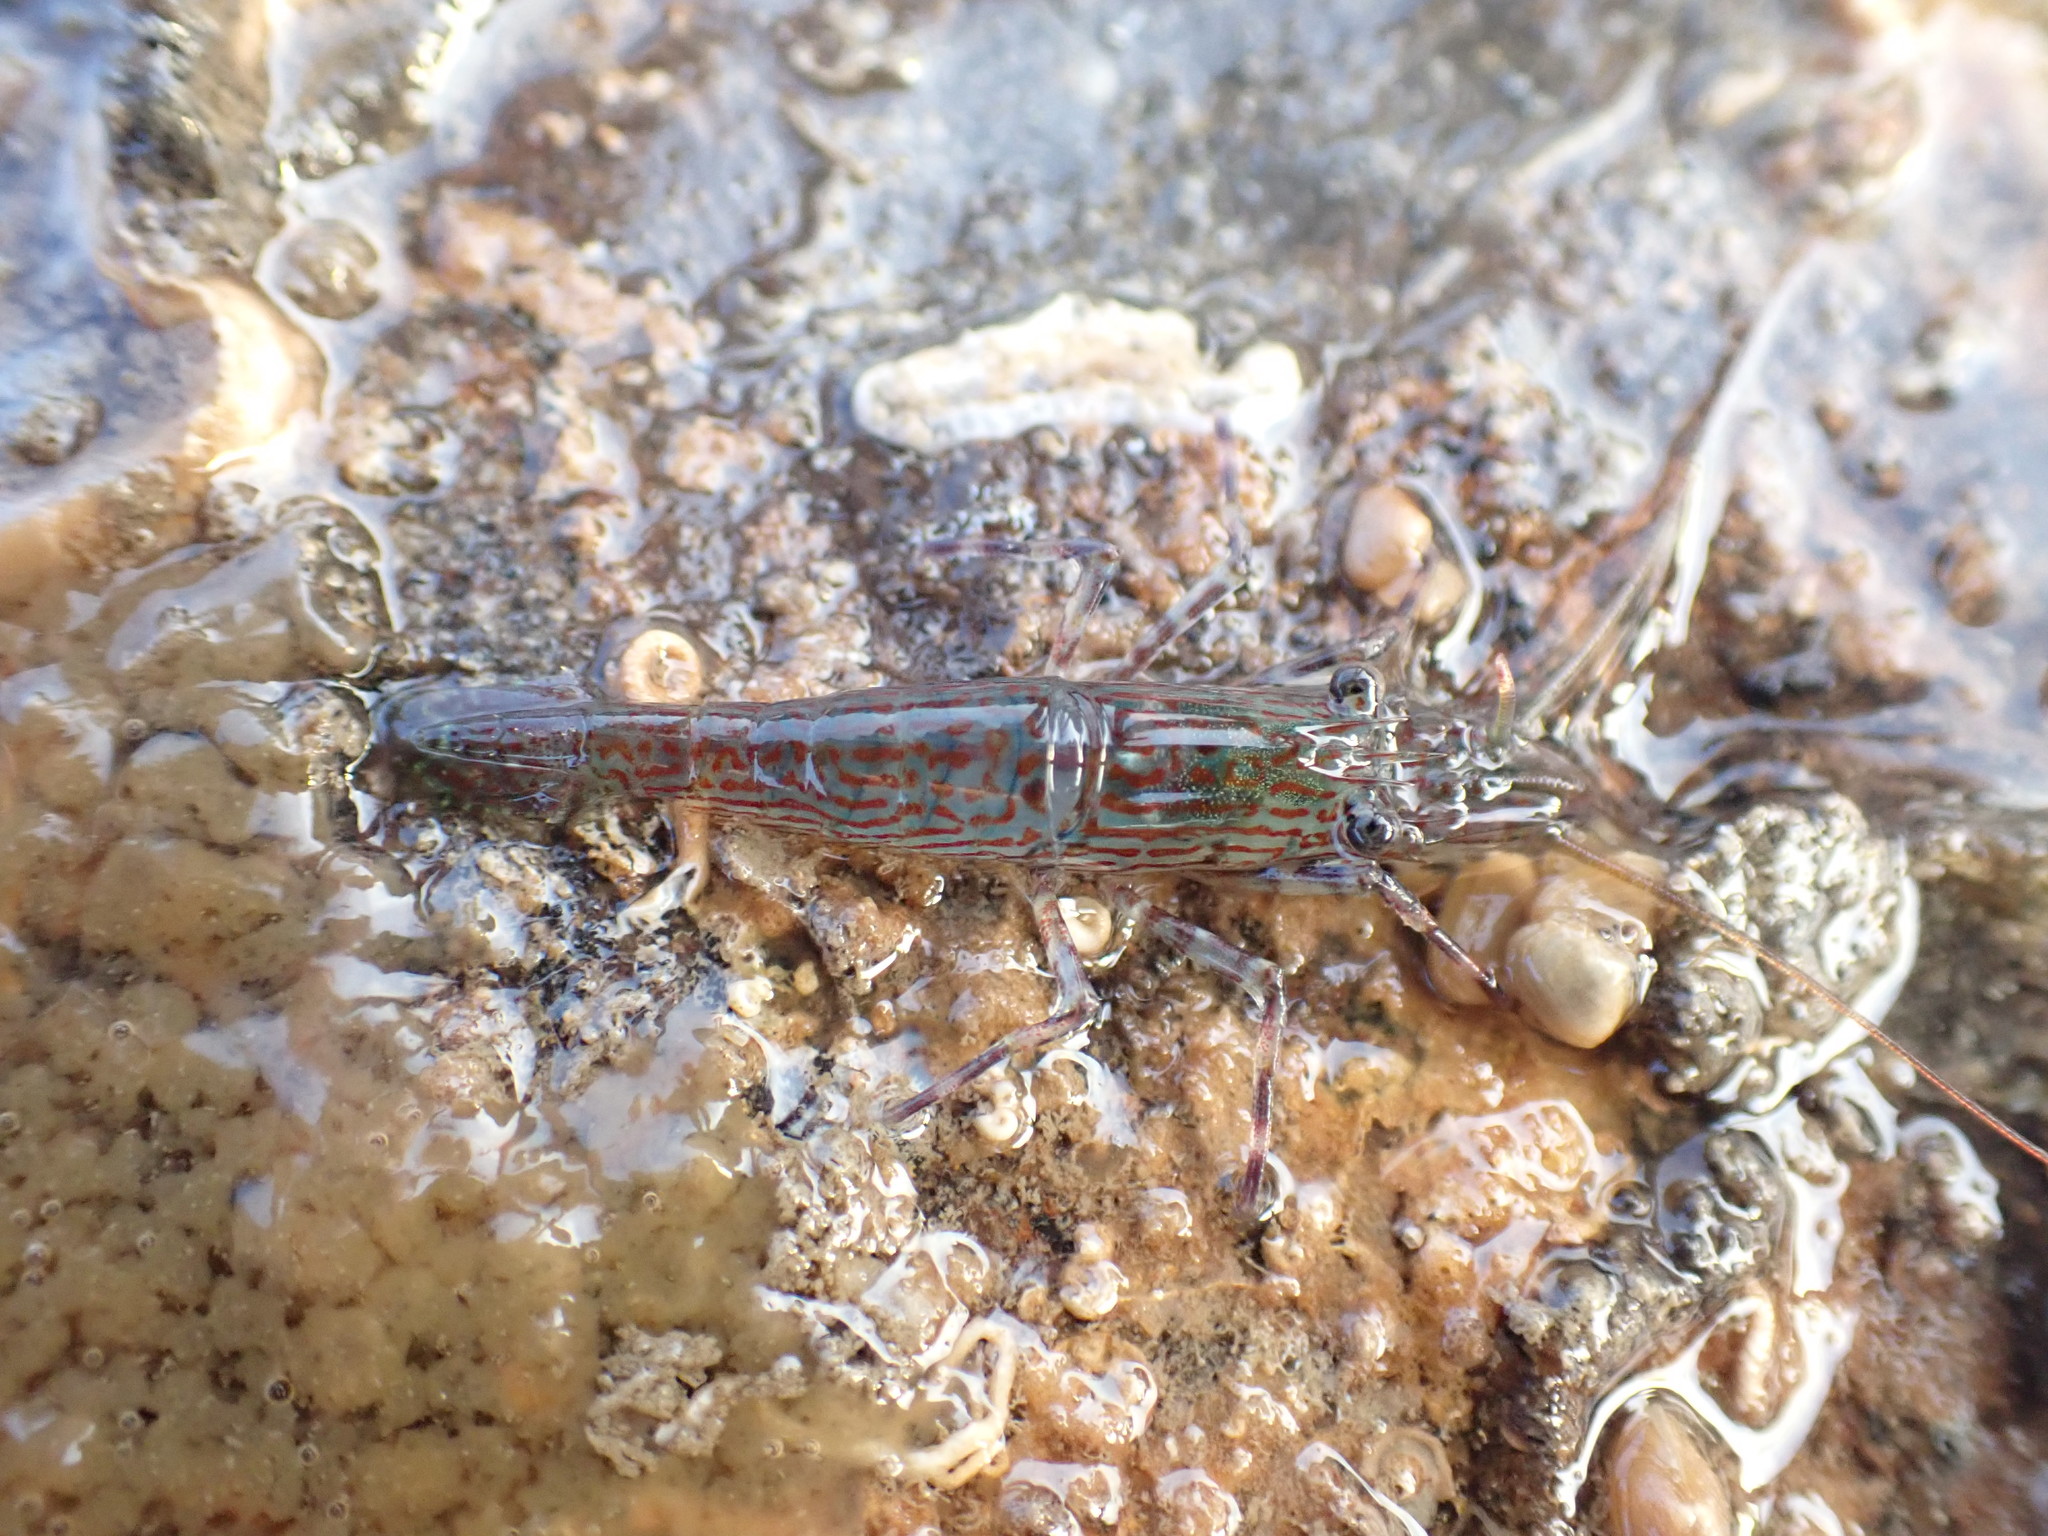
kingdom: Animalia
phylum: Arthropoda
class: Malacostraca
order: Decapoda
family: Hippolytidae
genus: Alope
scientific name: Alope spinifrons
